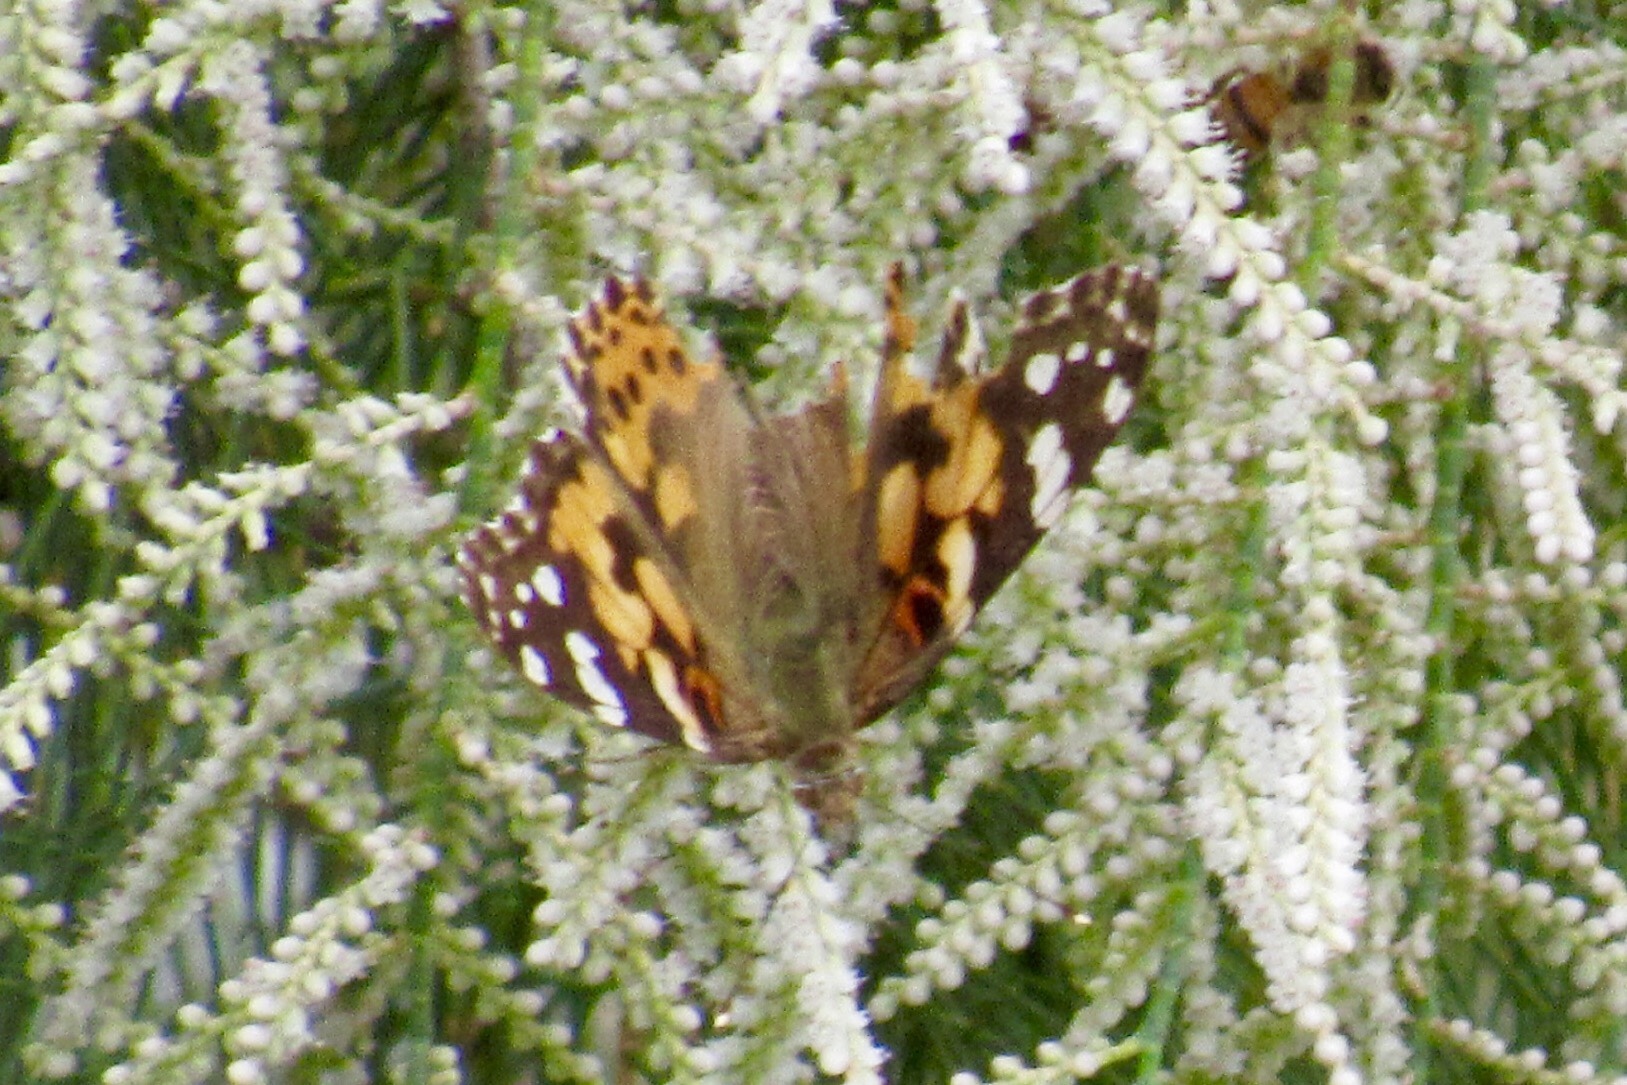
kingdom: Animalia
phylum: Arthropoda
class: Insecta
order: Lepidoptera
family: Nymphalidae
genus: Vanessa
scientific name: Vanessa cardui
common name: Painted lady
